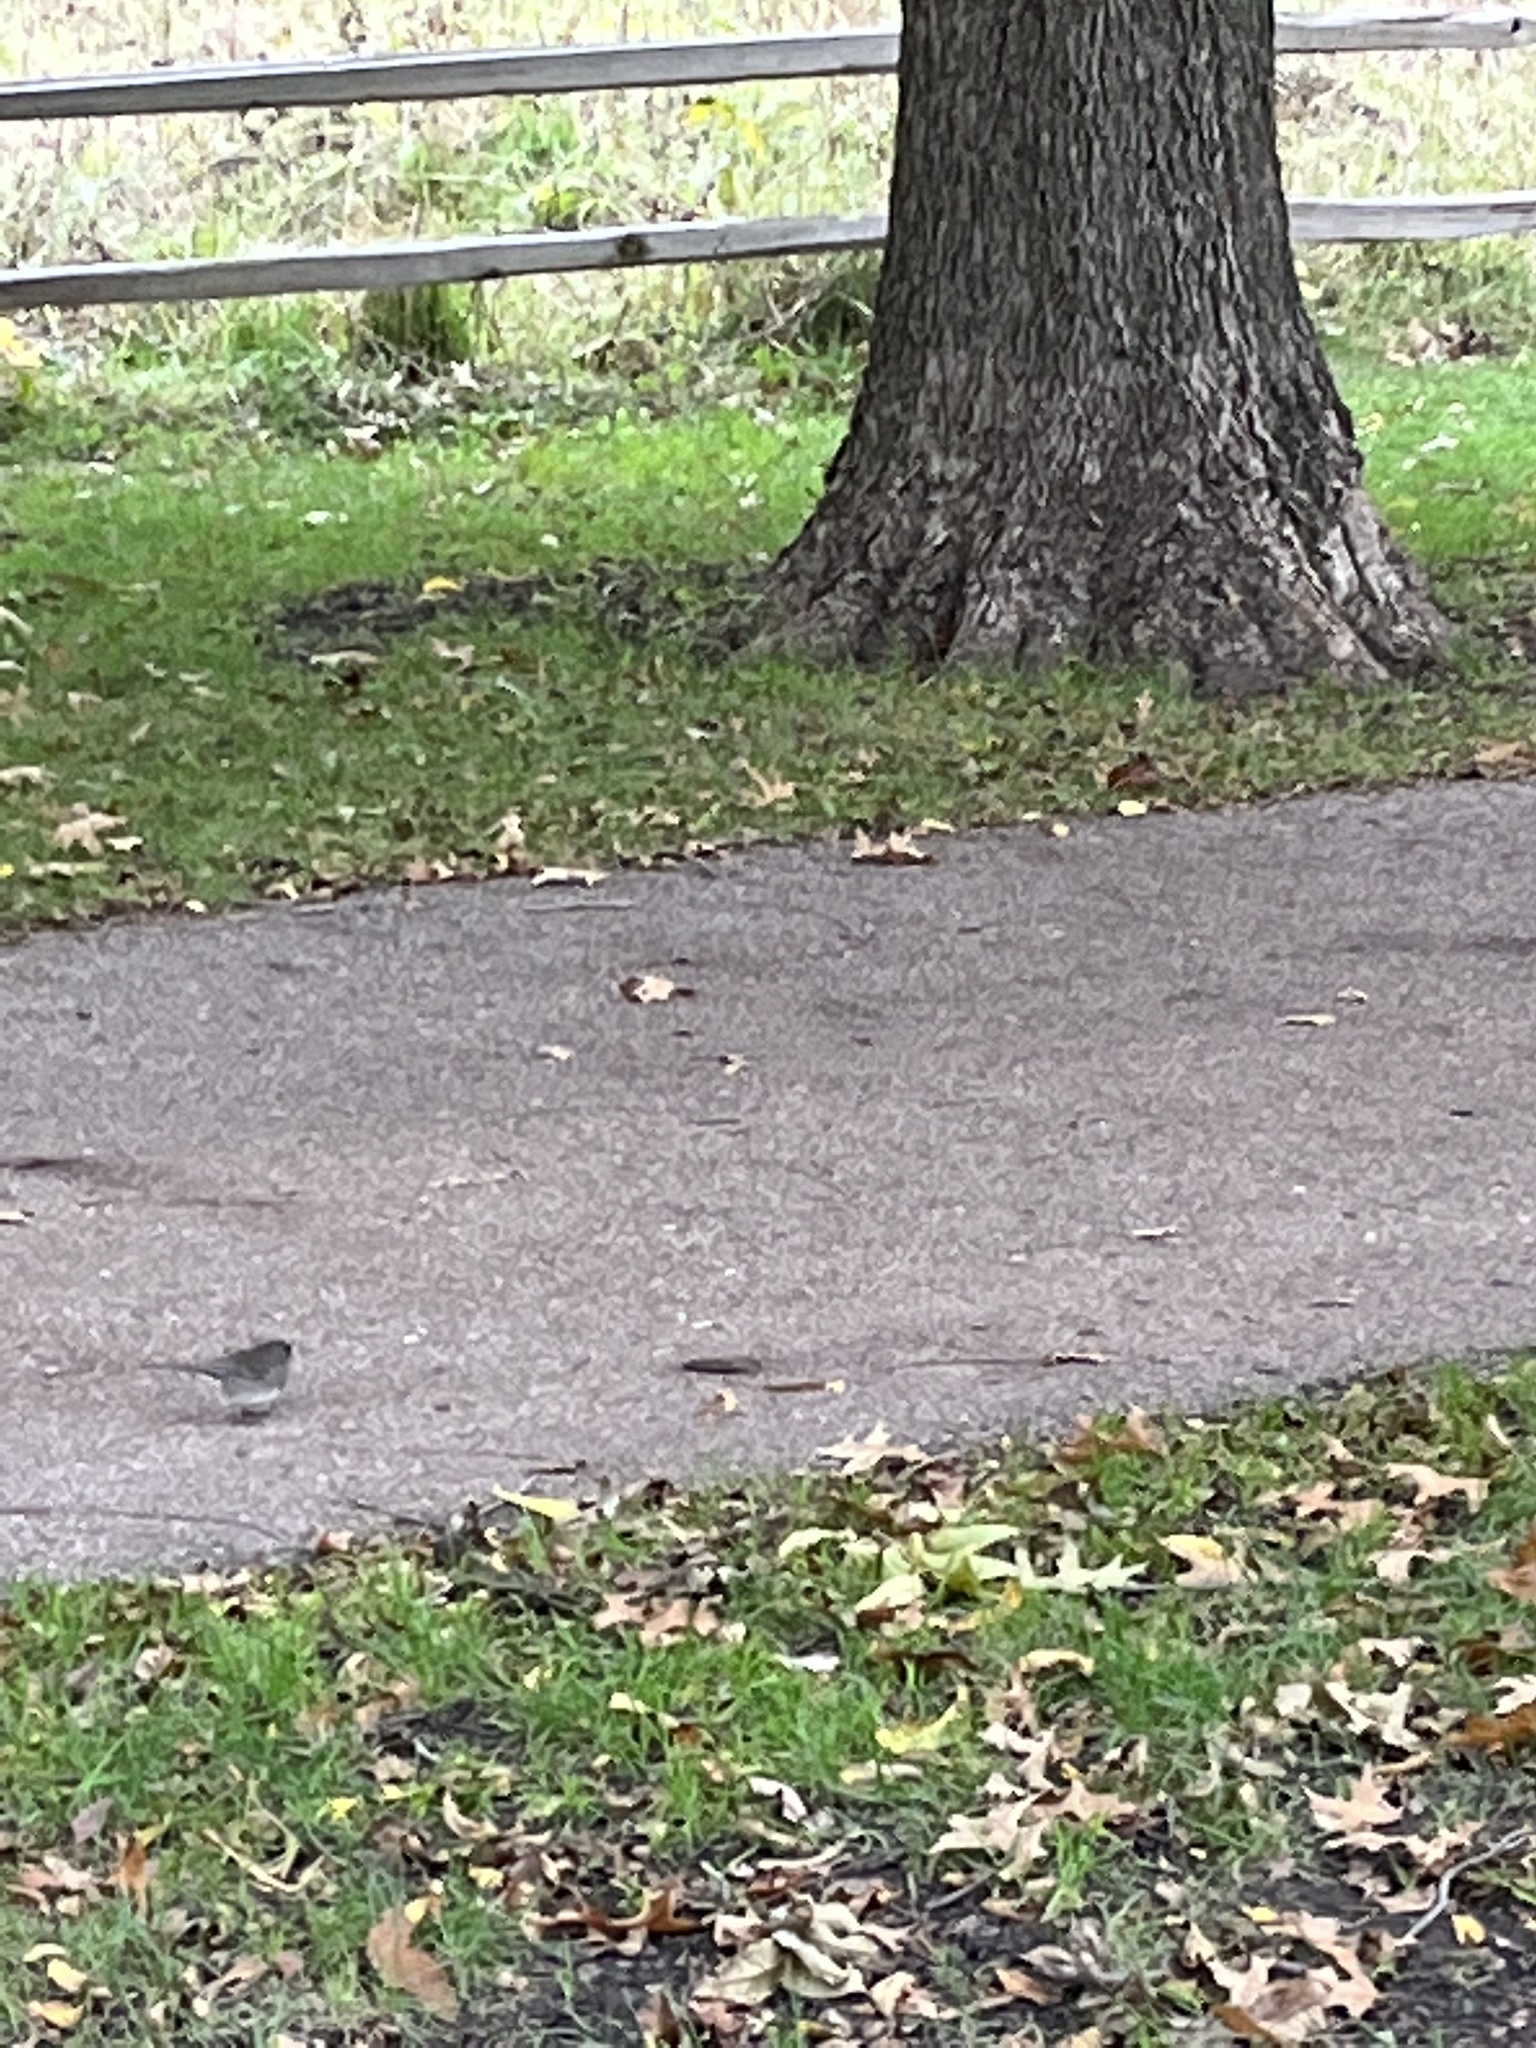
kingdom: Animalia
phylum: Chordata
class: Aves
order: Passeriformes
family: Passerellidae
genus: Junco
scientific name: Junco hyemalis
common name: Dark-eyed junco
